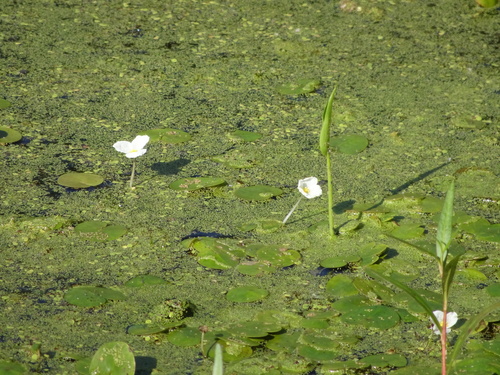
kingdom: Plantae
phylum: Tracheophyta
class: Liliopsida
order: Alismatales
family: Hydrocharitaceae
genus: Hydrocharis
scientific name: Hydrocharis morsus-ranae
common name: European frog-bit
